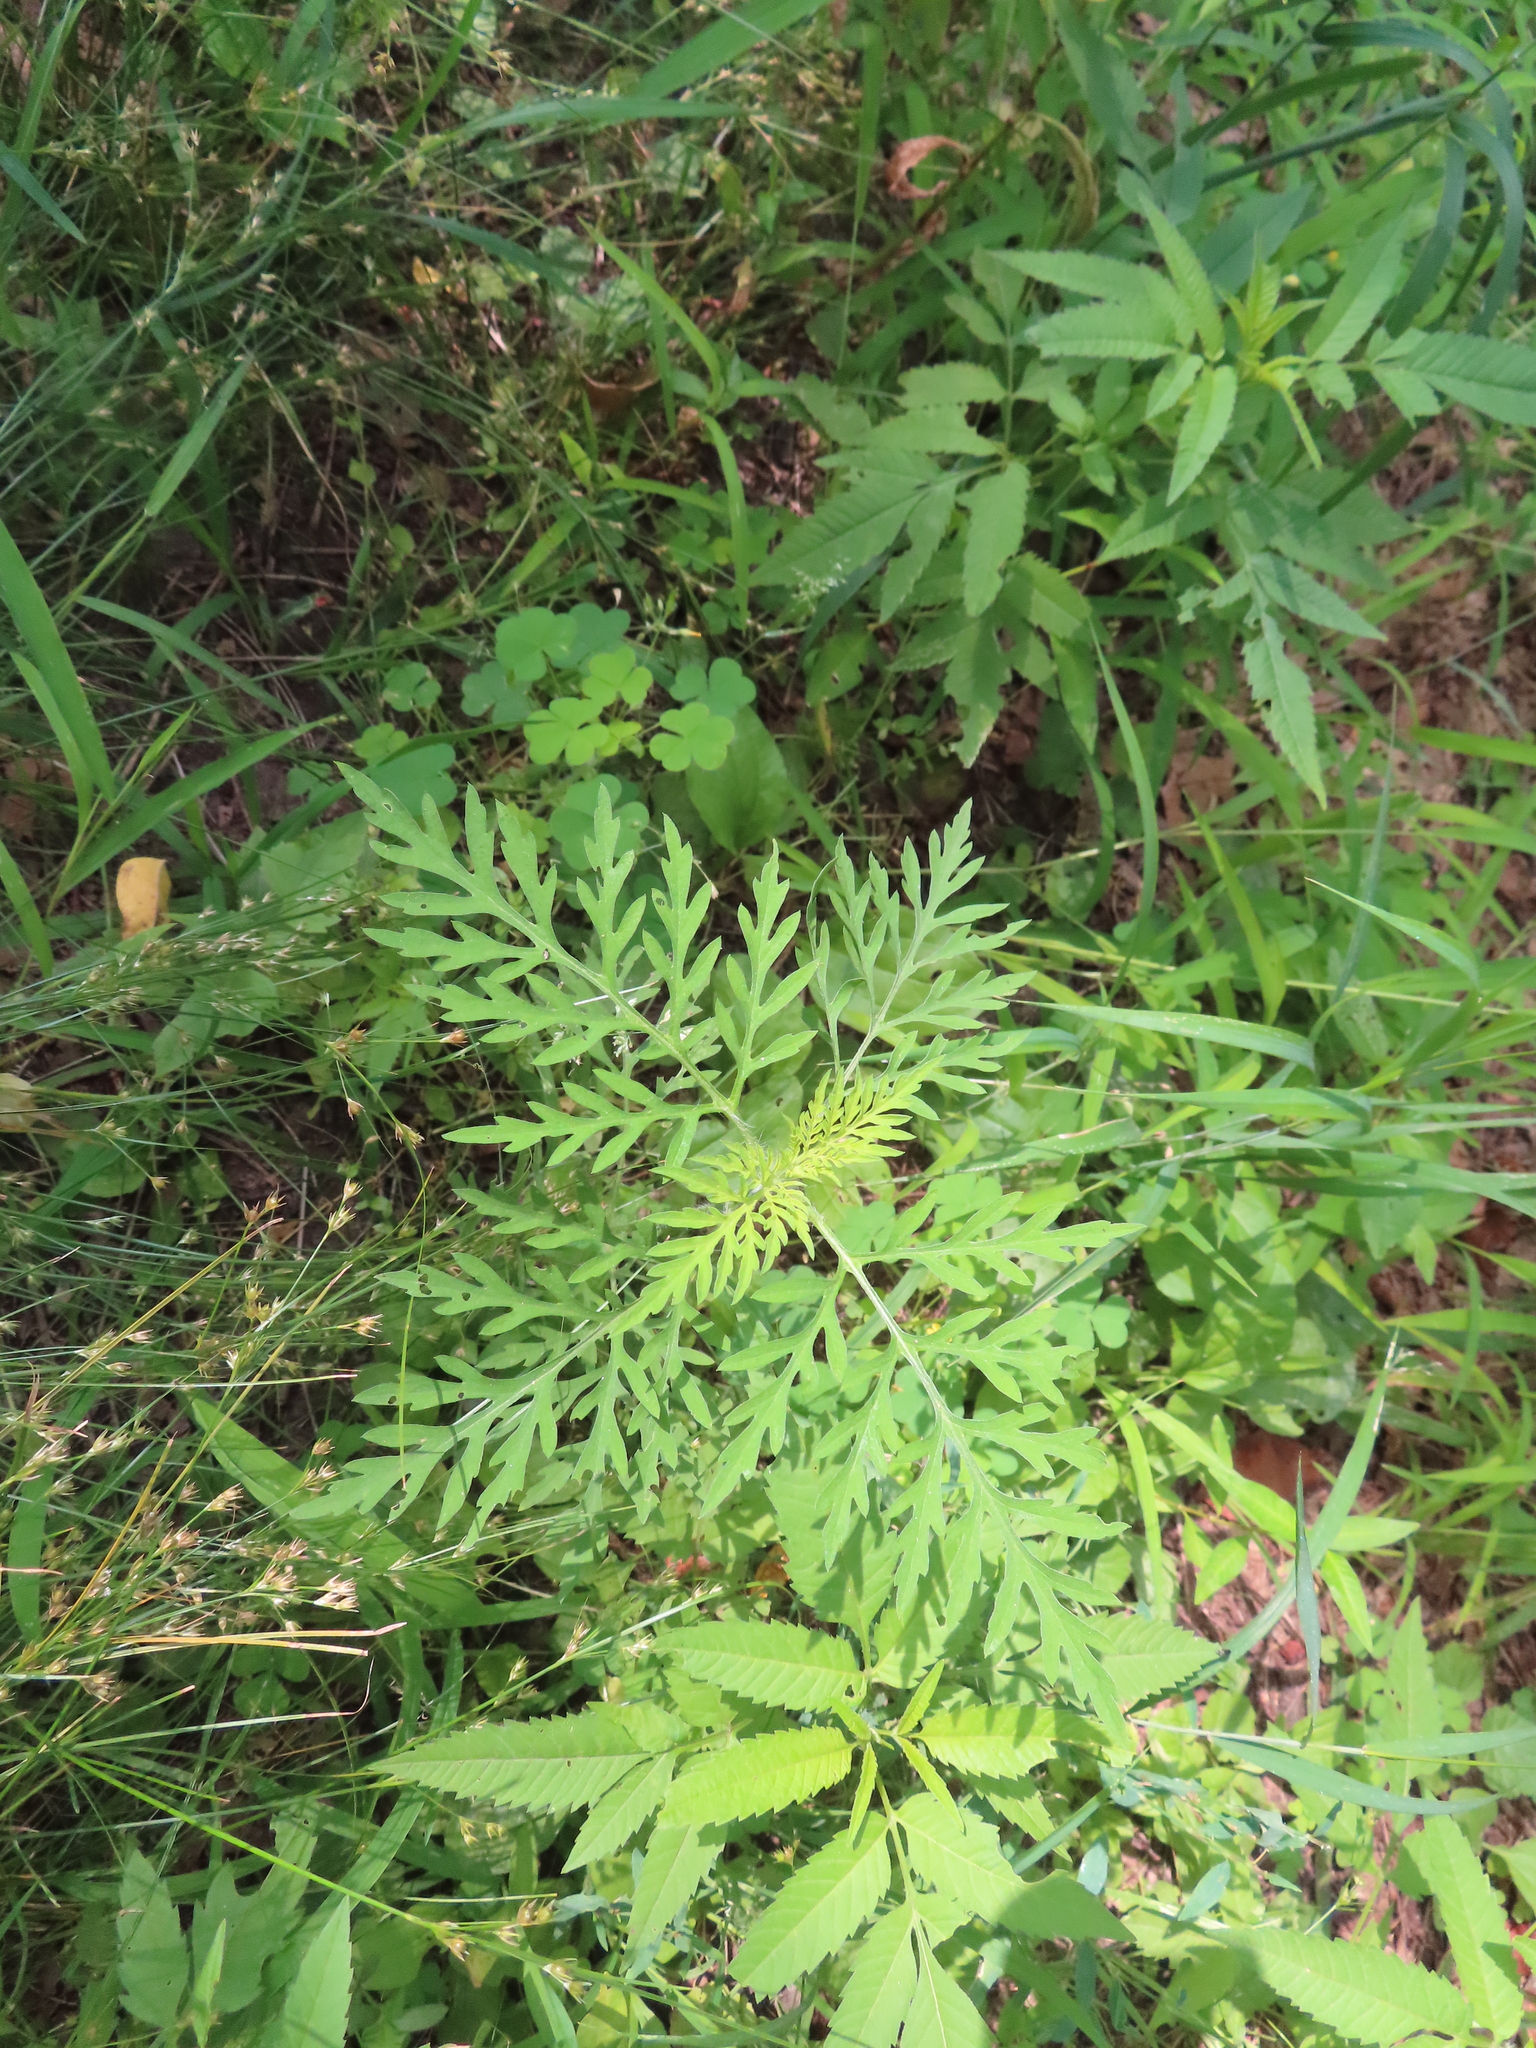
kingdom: Plantae
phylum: Tracheophyta
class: Magnoliopsida
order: Asterales
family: Asteraceae
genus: Ambrosia
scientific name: Ambrosia artemisiifolia
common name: Annual ragweed
